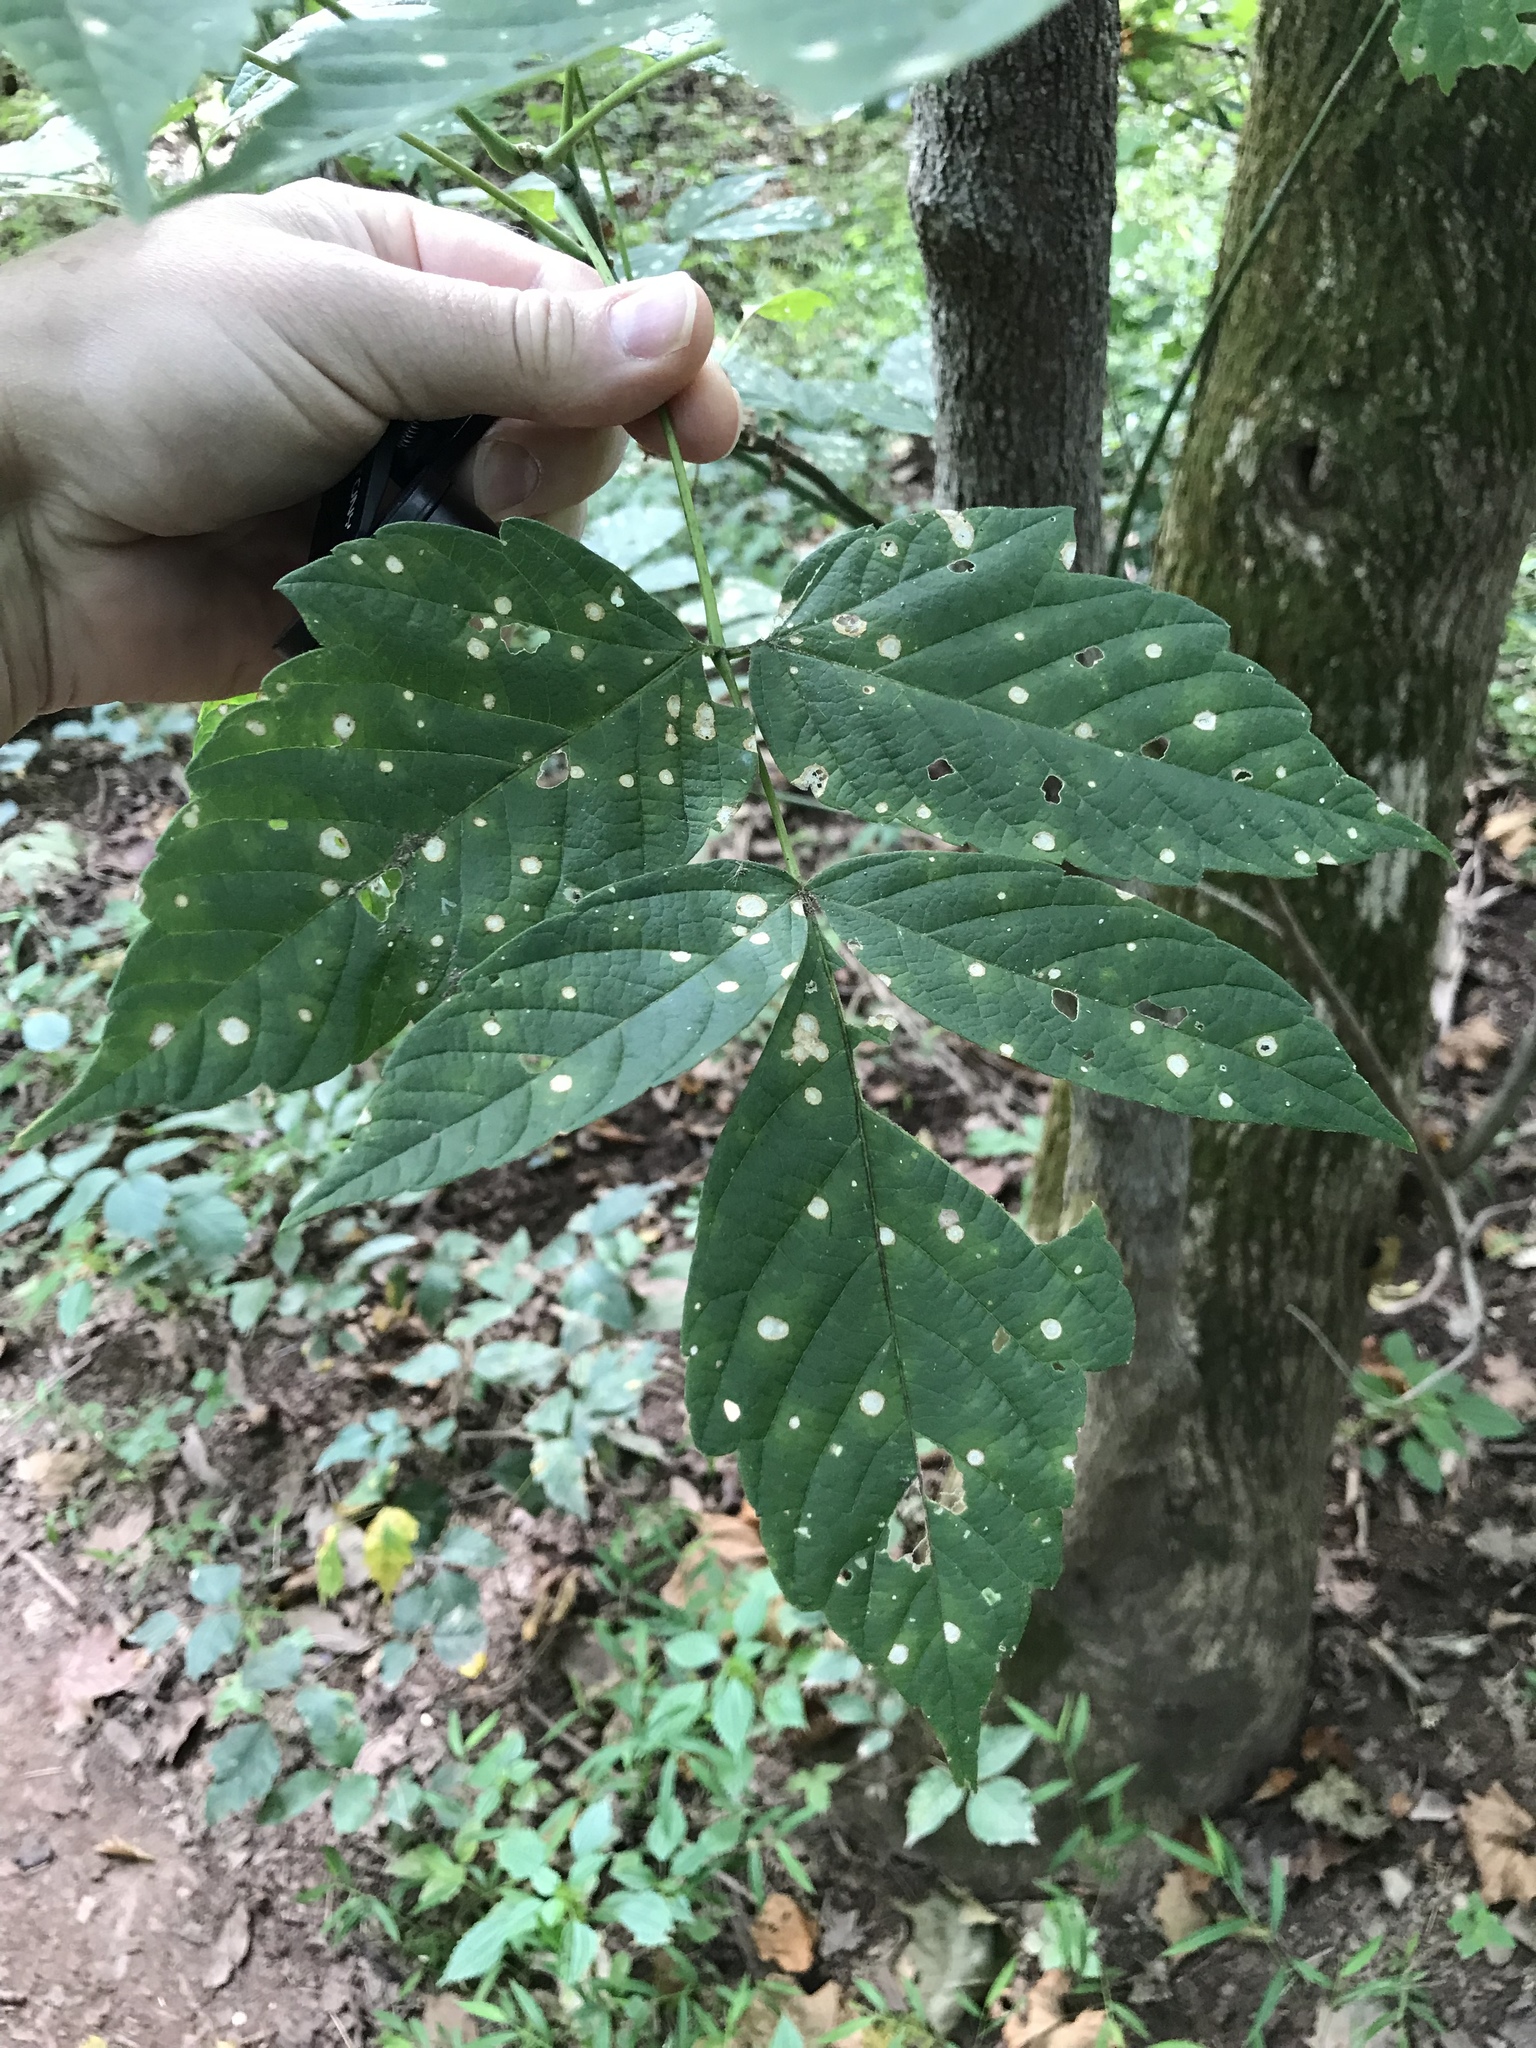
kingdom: Plantae
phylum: Tracheophyta
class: Magnoliopsida
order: Sapindales
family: Sapindaceae
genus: Acer
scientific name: Acer negundo
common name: Ashleaf maple
